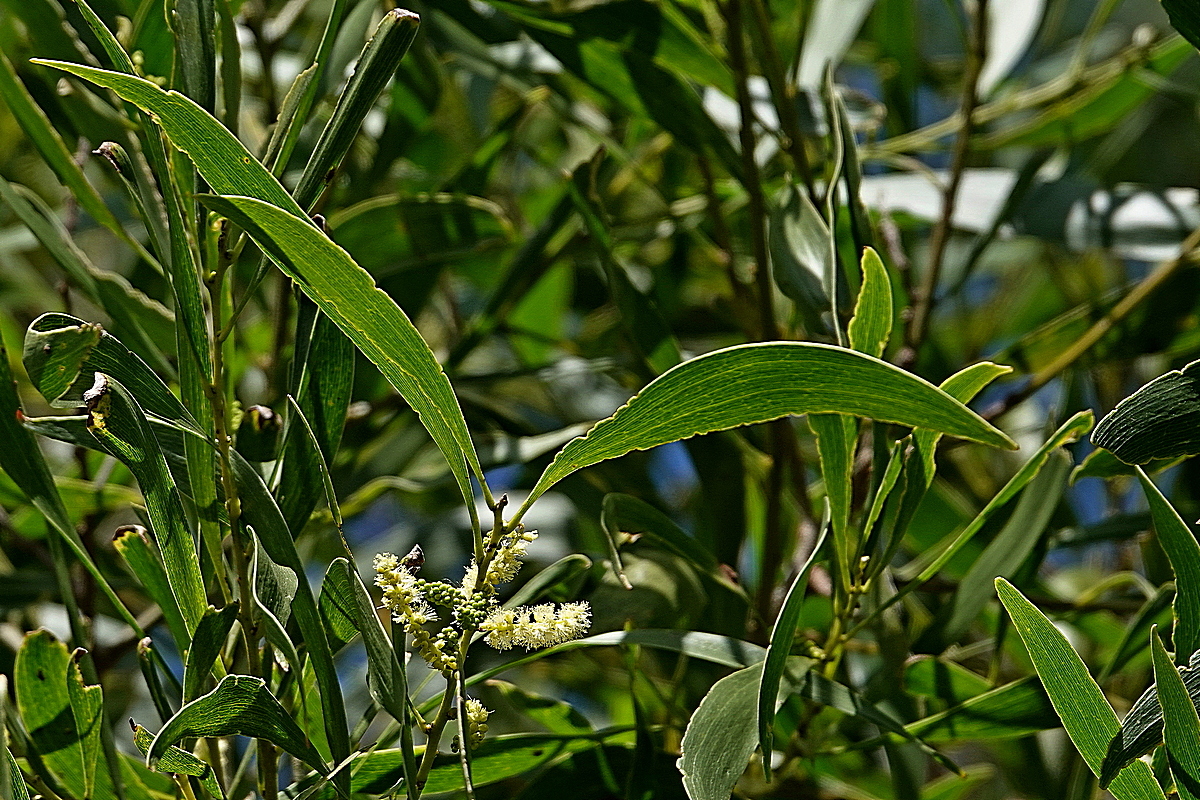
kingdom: Plantae
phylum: Tracheophyta
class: Magnoliopsida
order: Fabales
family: Fabaceae
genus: Acacia
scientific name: Acacia maidenii
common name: Maiden's wattle
